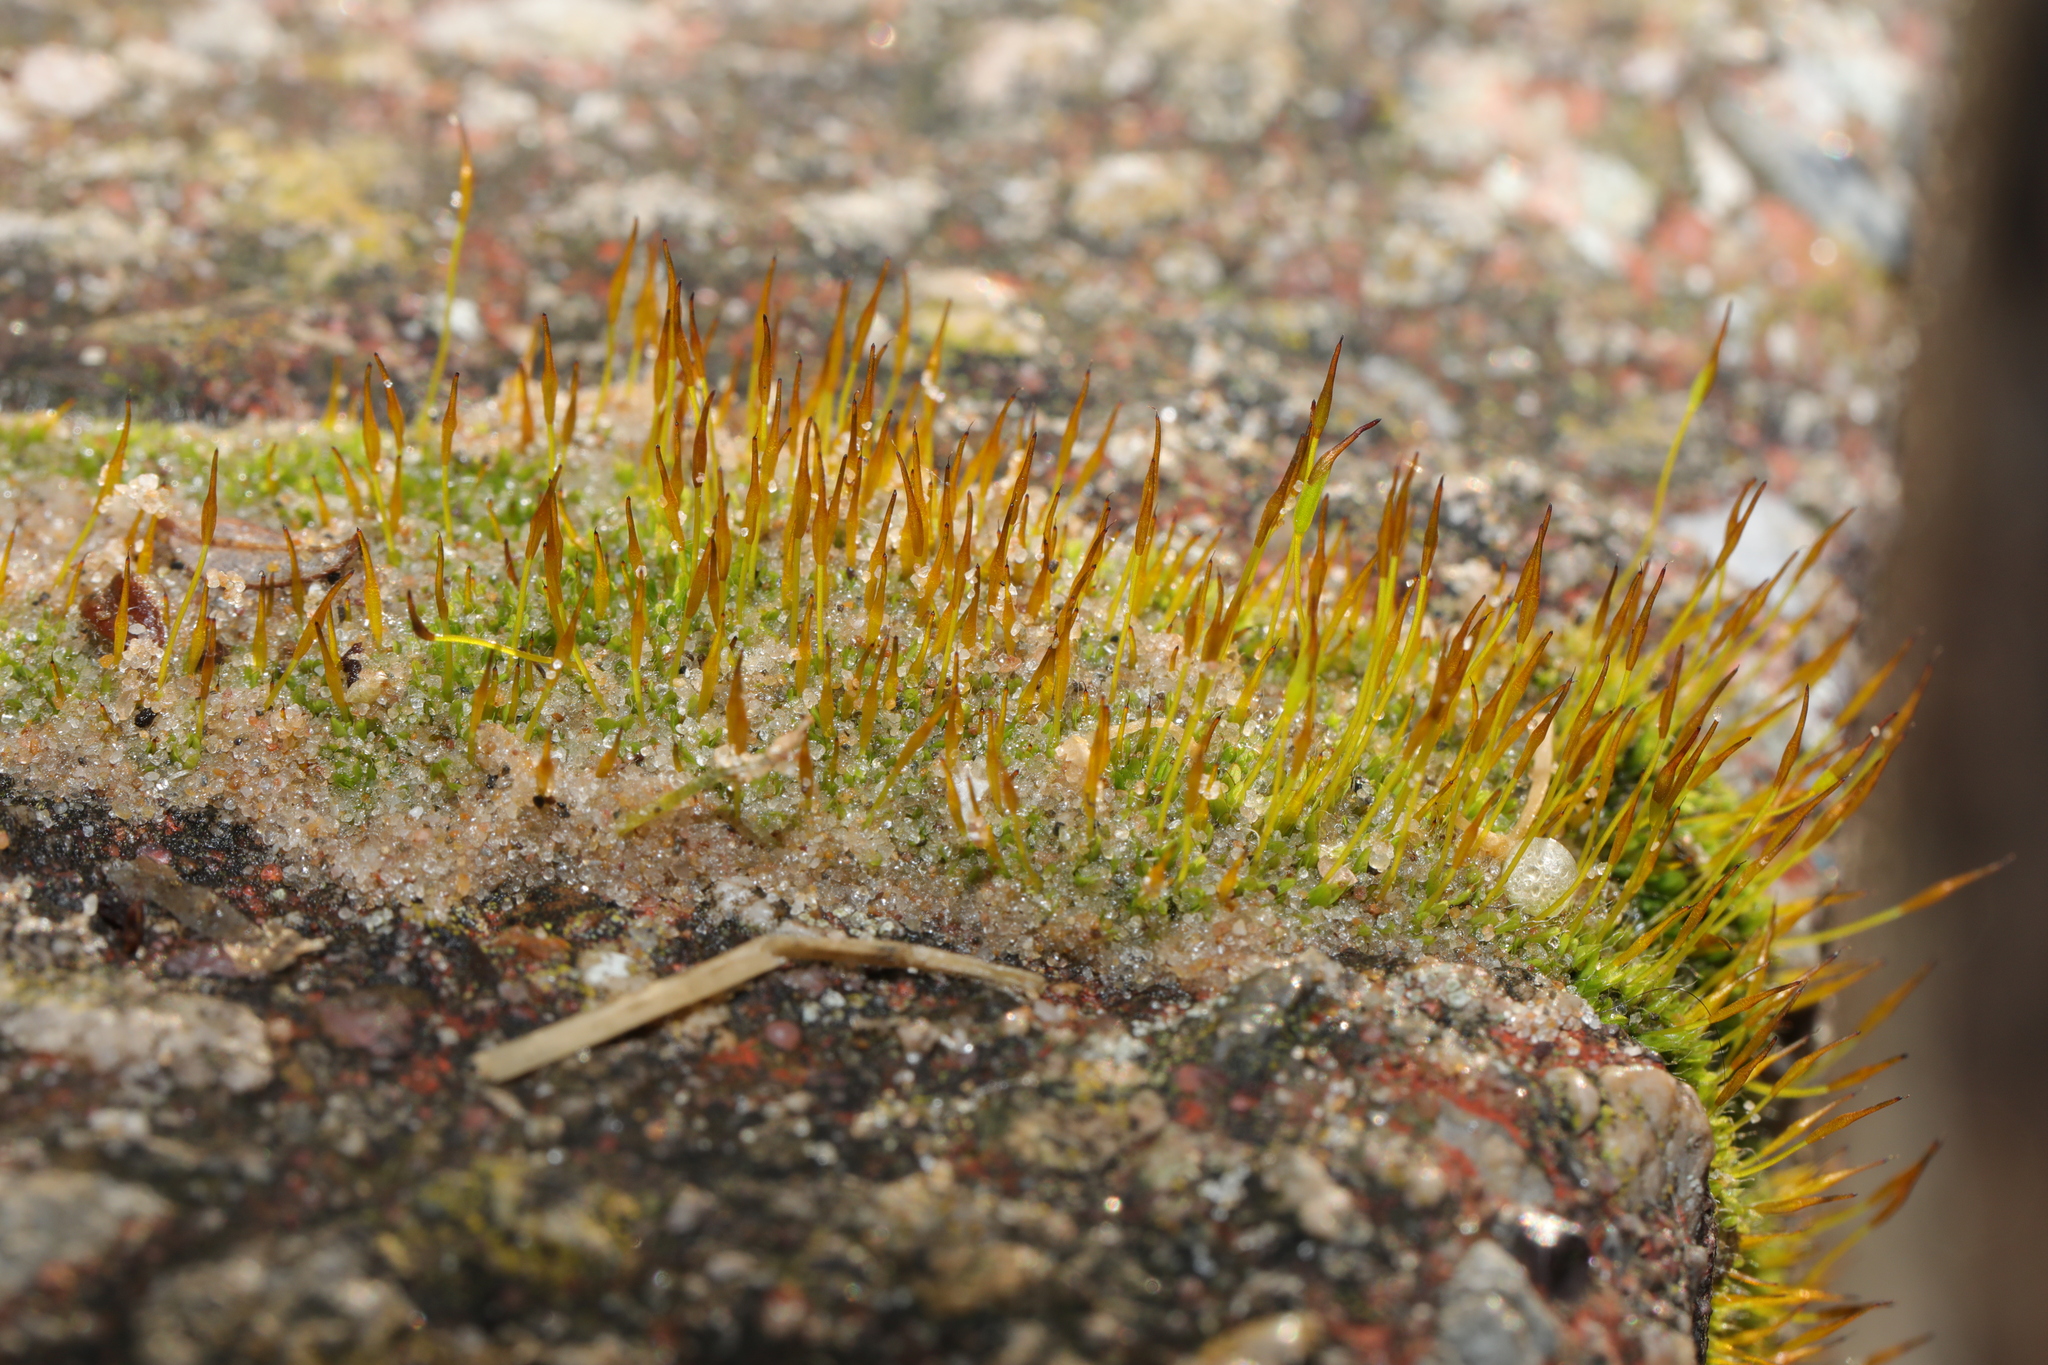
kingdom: Plantae
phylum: Bryophyta
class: Bryopsida
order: Pottiales
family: Pottiaceae
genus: Tortula
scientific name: Tortula muralis
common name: Wall screw-moss
